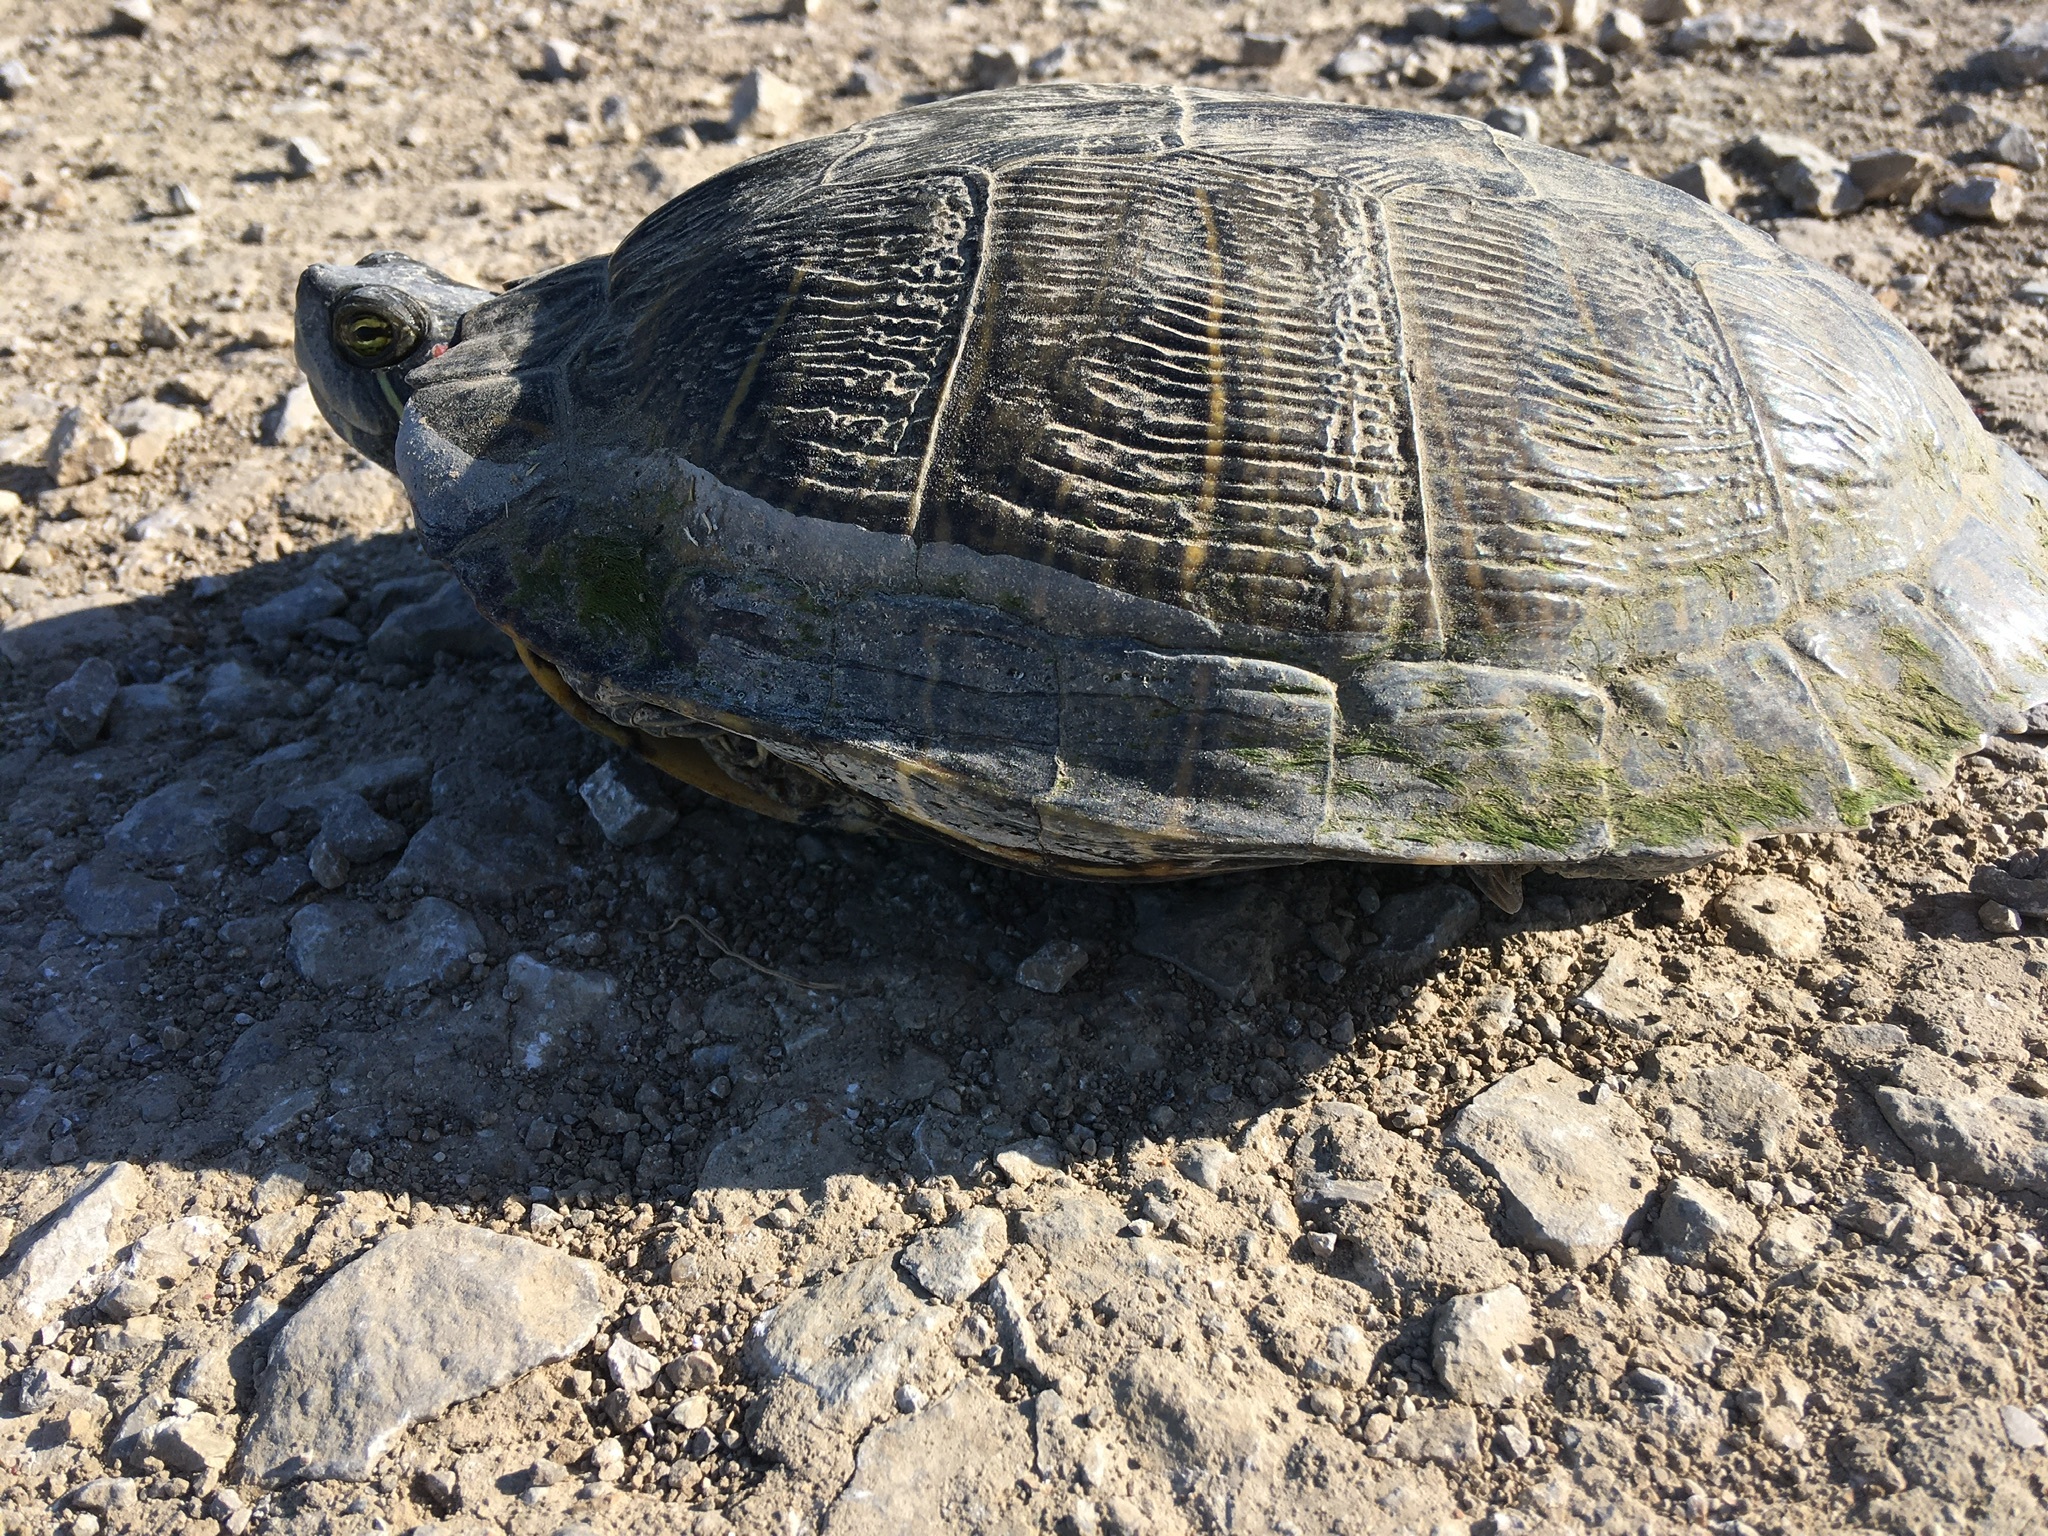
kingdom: Animalia
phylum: Chordata
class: Testudines
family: Emydidae
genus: Trachemys
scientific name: Trachemys scripta
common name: Slider
